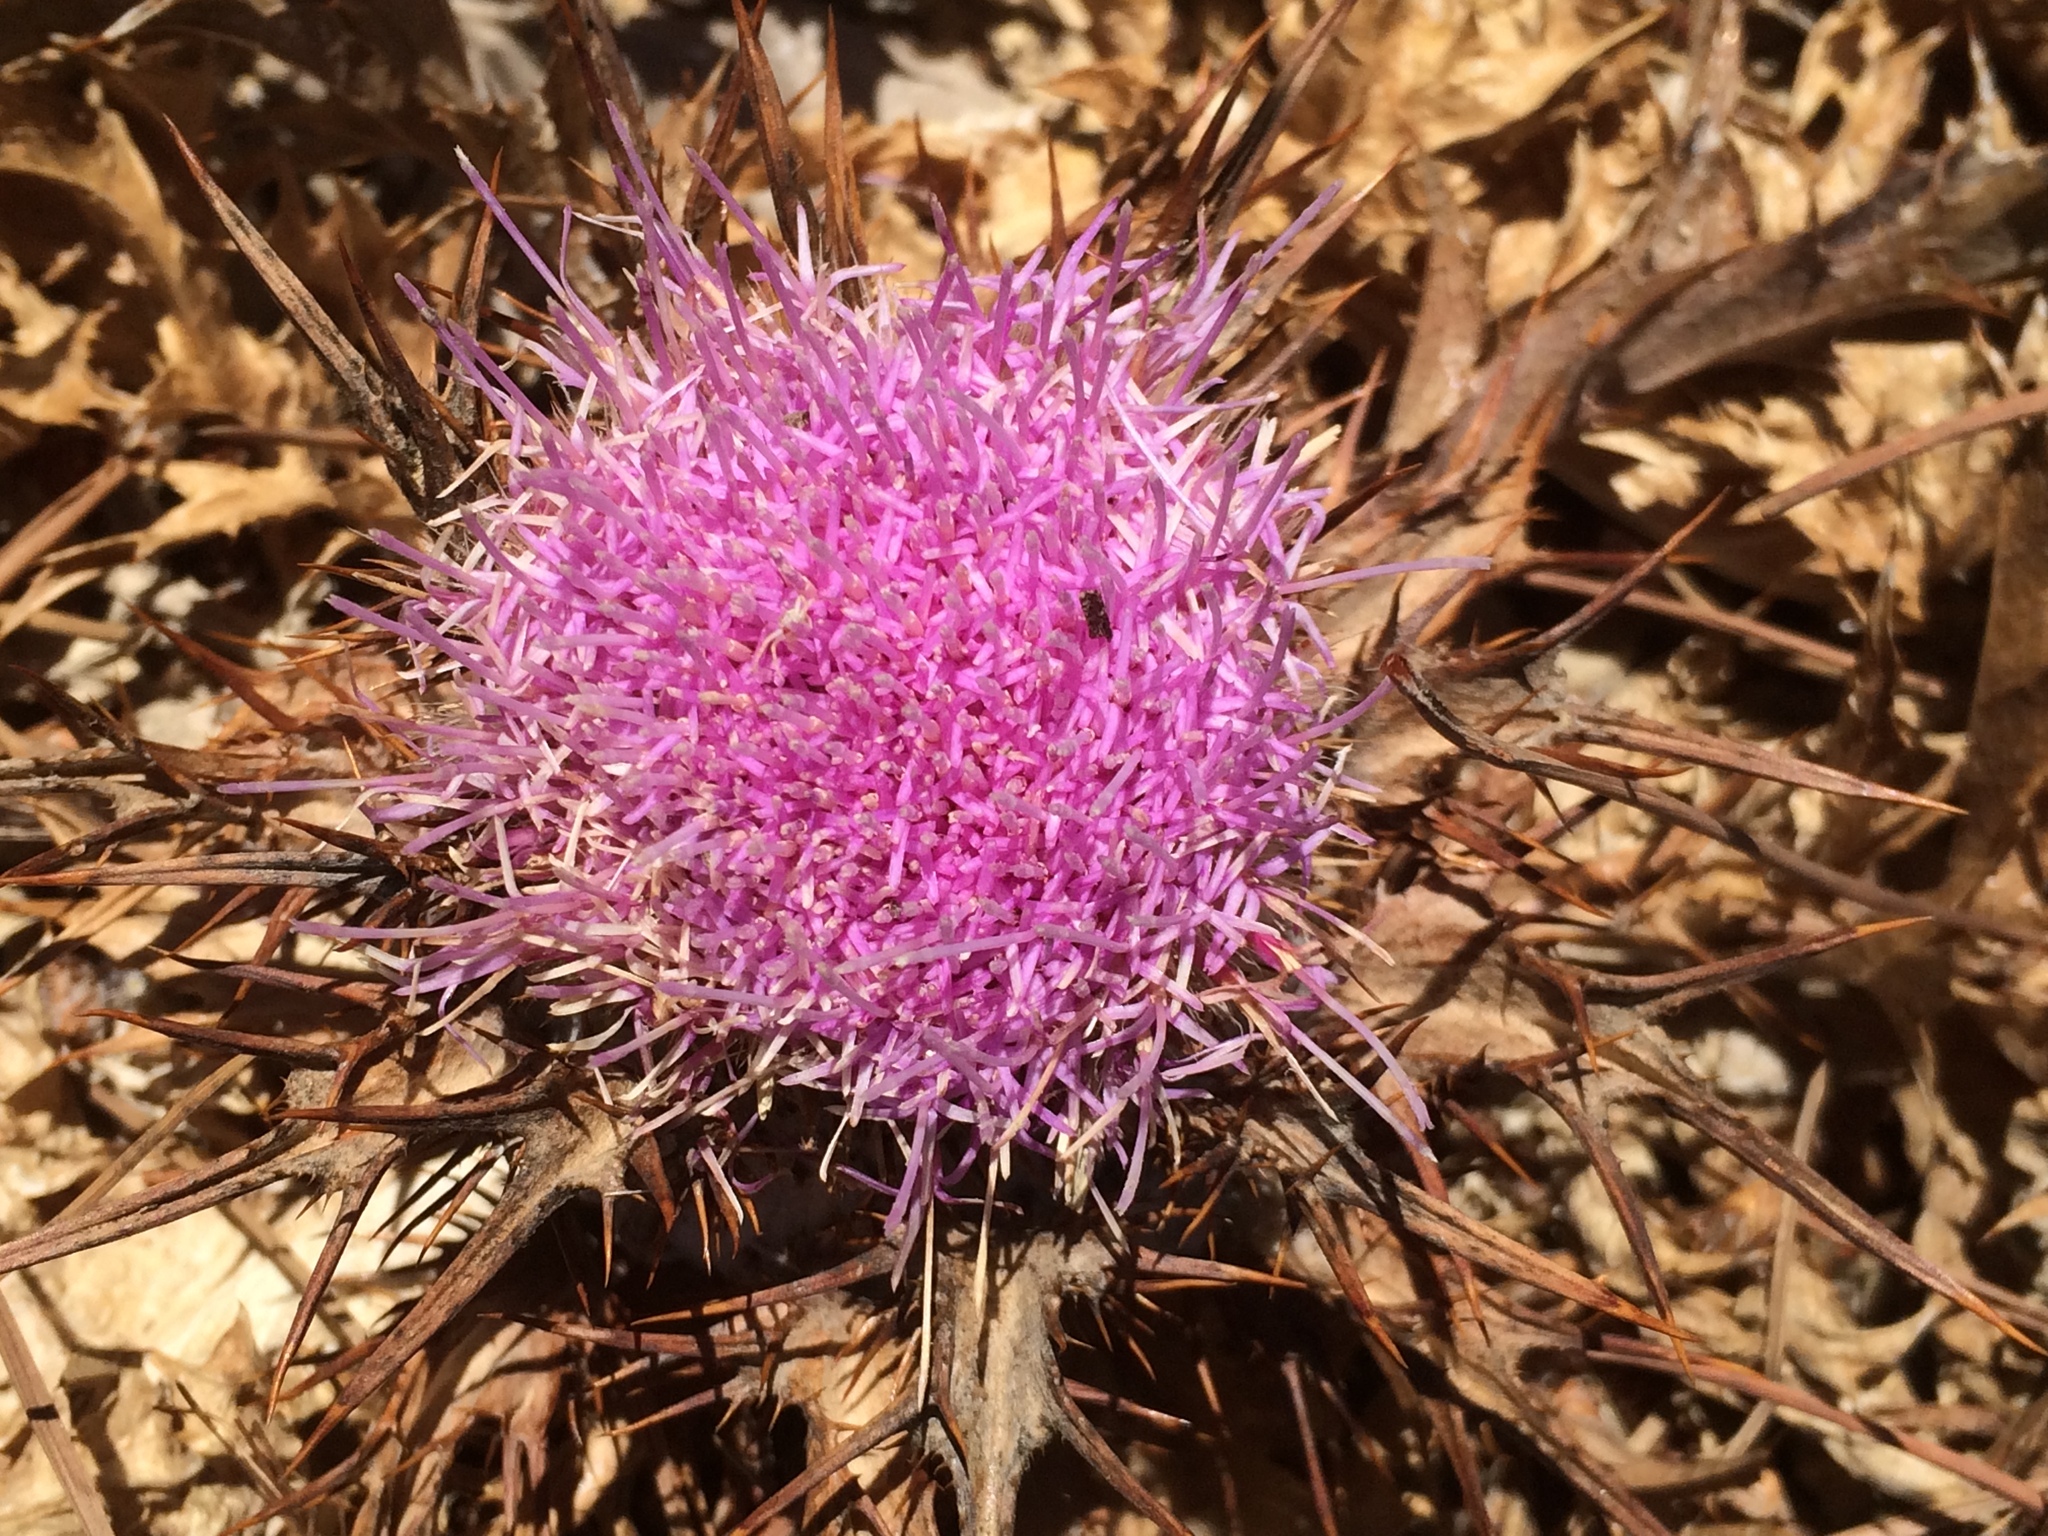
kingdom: Plantae
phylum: Tracheophyta
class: Magnoliopsida
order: Asterales
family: Asteraceae
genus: Chamaeleon
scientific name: Chamaeleon gummifer
